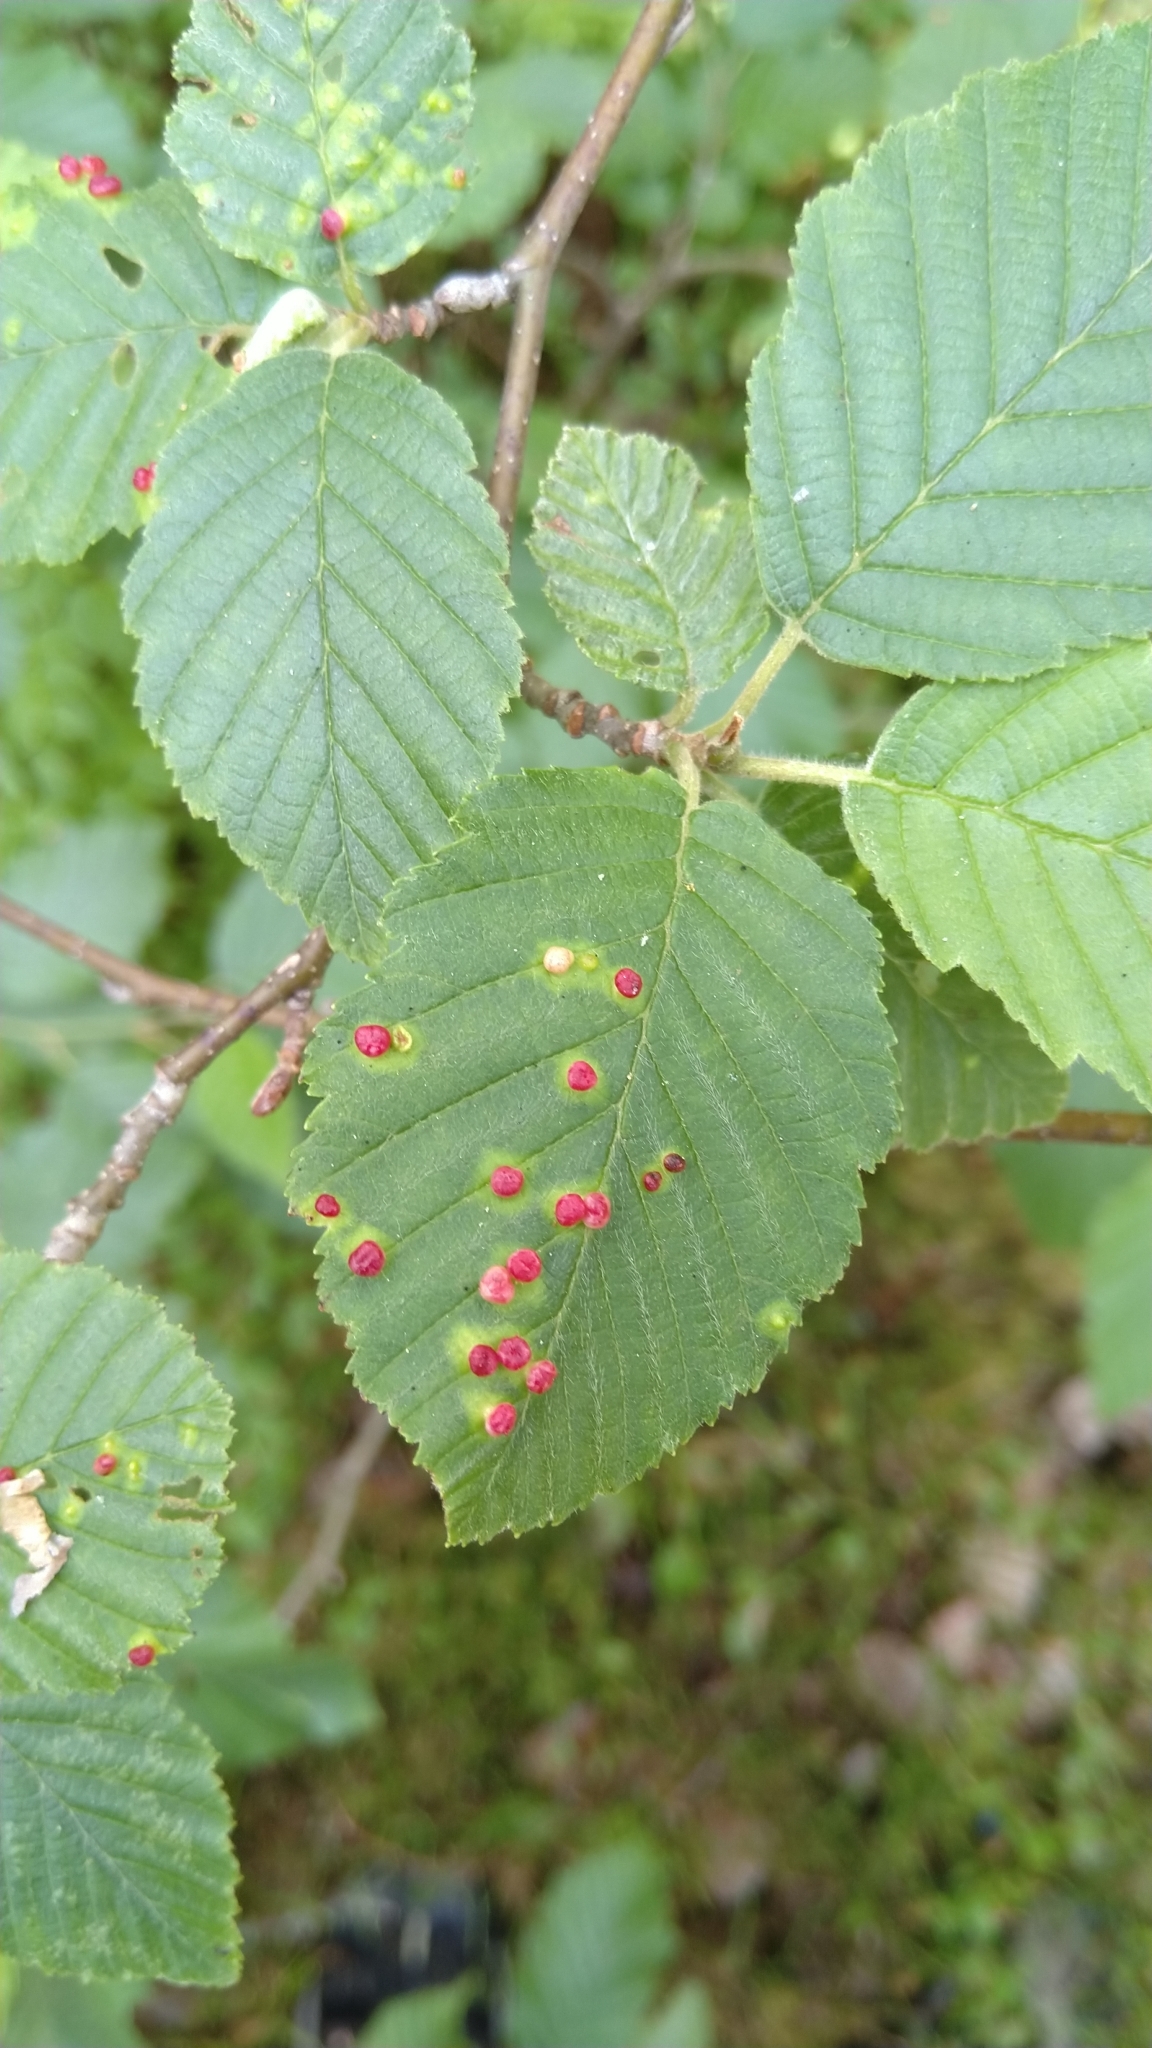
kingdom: Animalia
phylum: Arthropoda
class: Arachnida
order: Trombidiformes
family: Eriophyidae
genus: Eriophyes
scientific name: Eriophyes alniincanae
